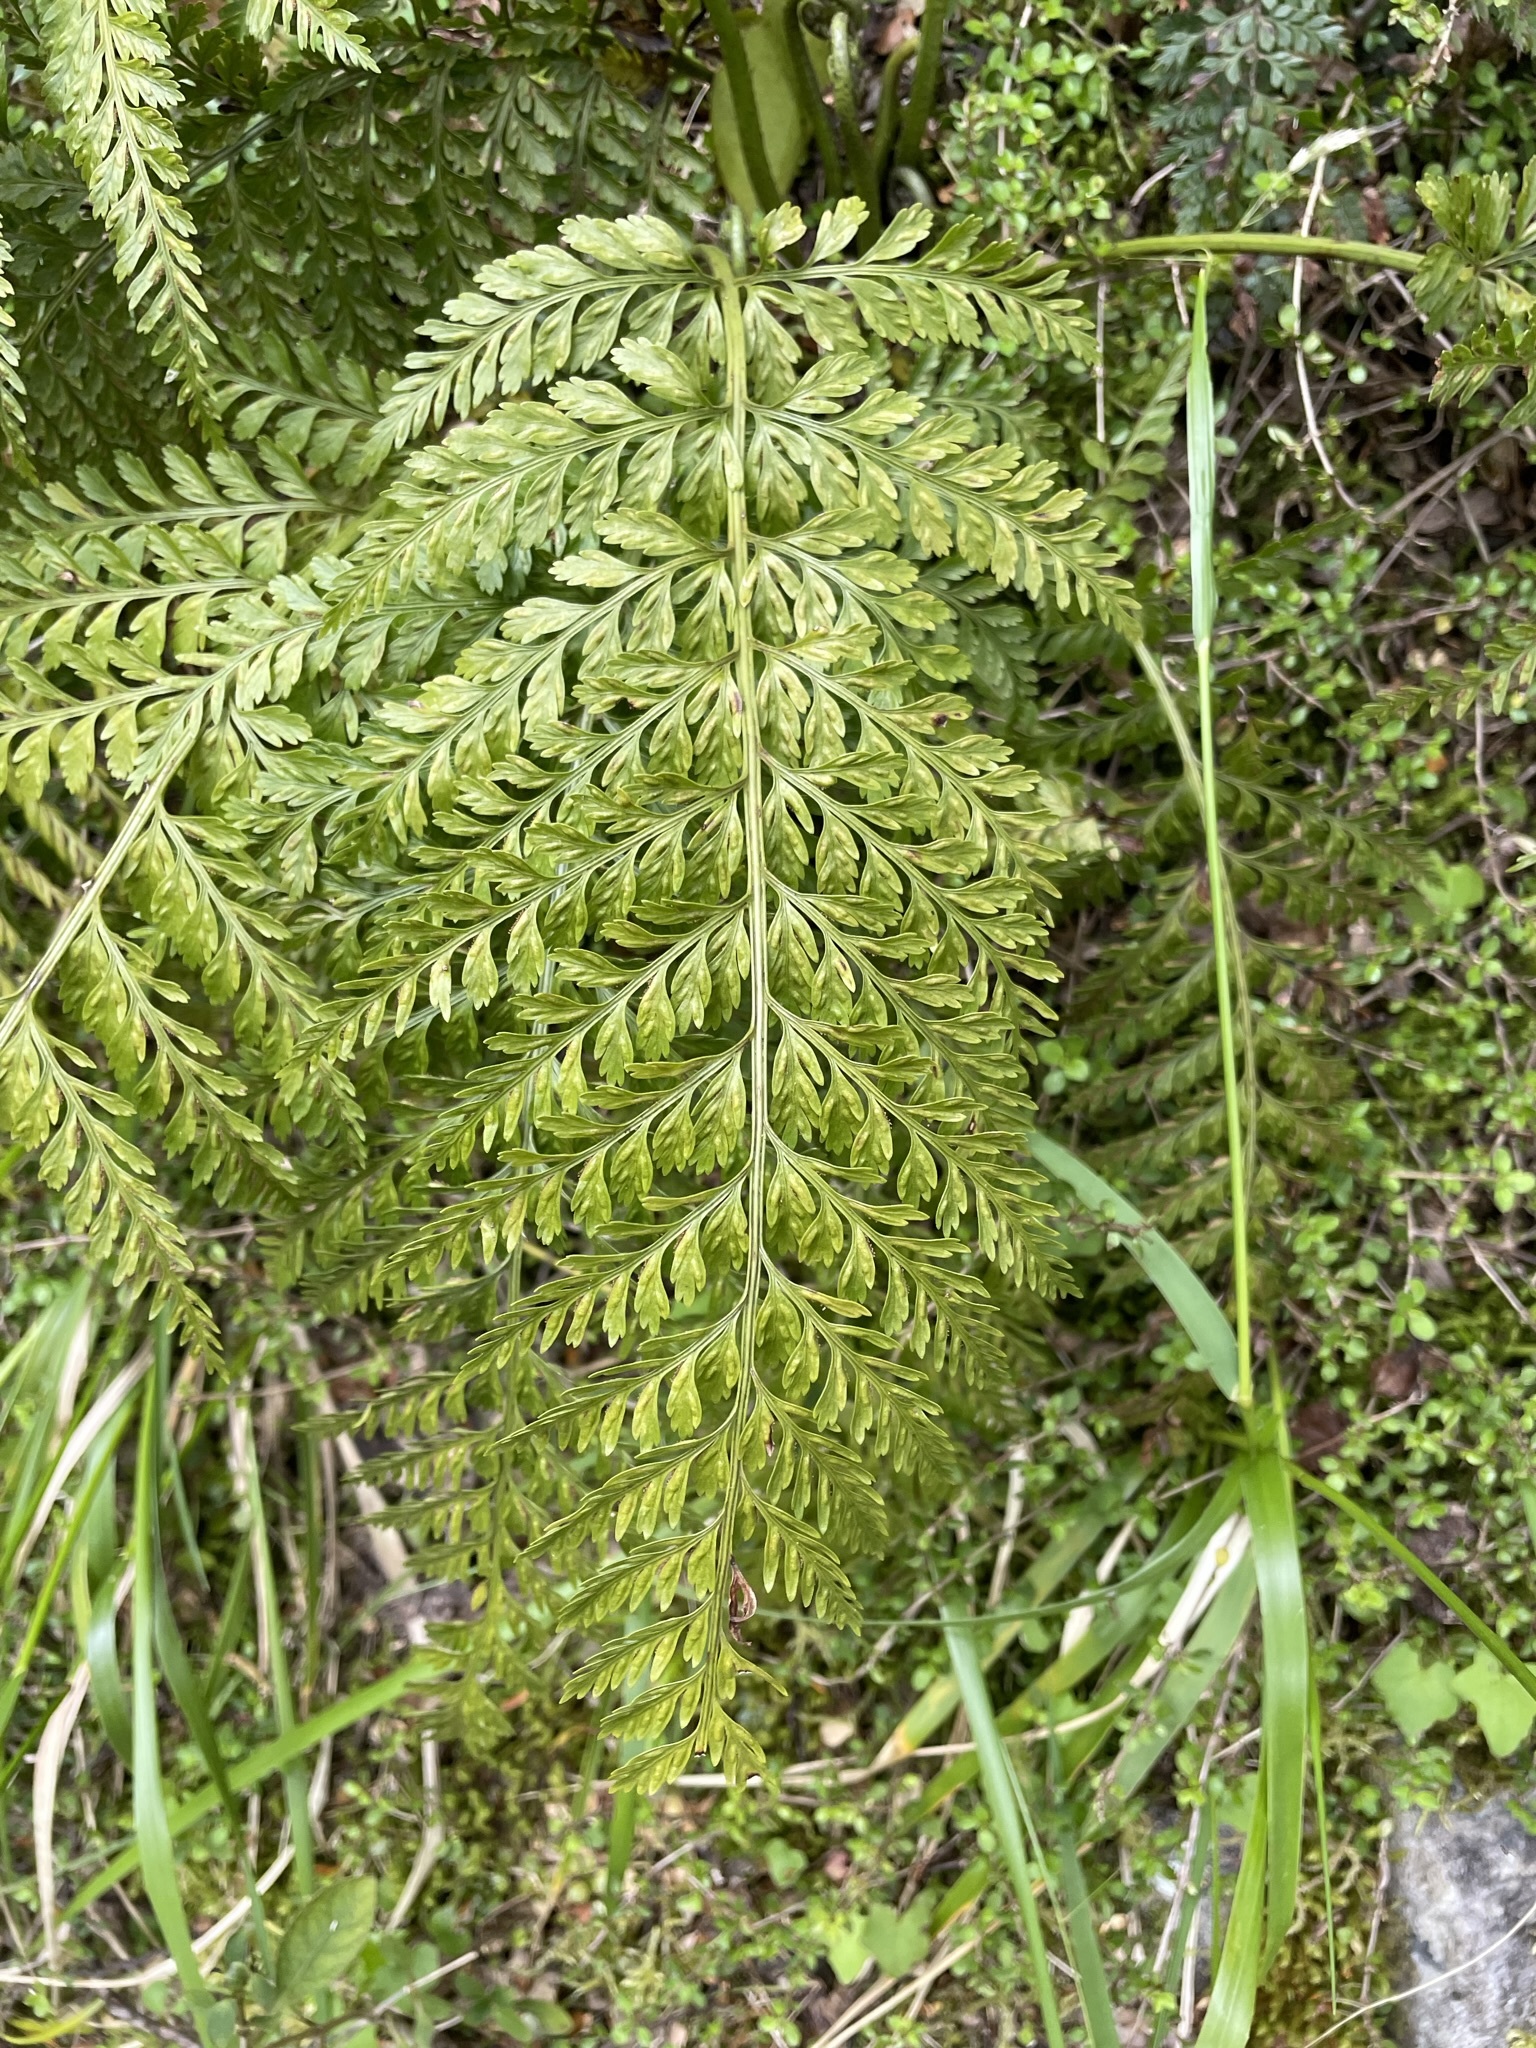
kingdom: Plantae
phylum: Tracheophyta
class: Polypodiopsida
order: Polypodiales
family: Aspleniaceae
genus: Asplenium
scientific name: Asplenium
